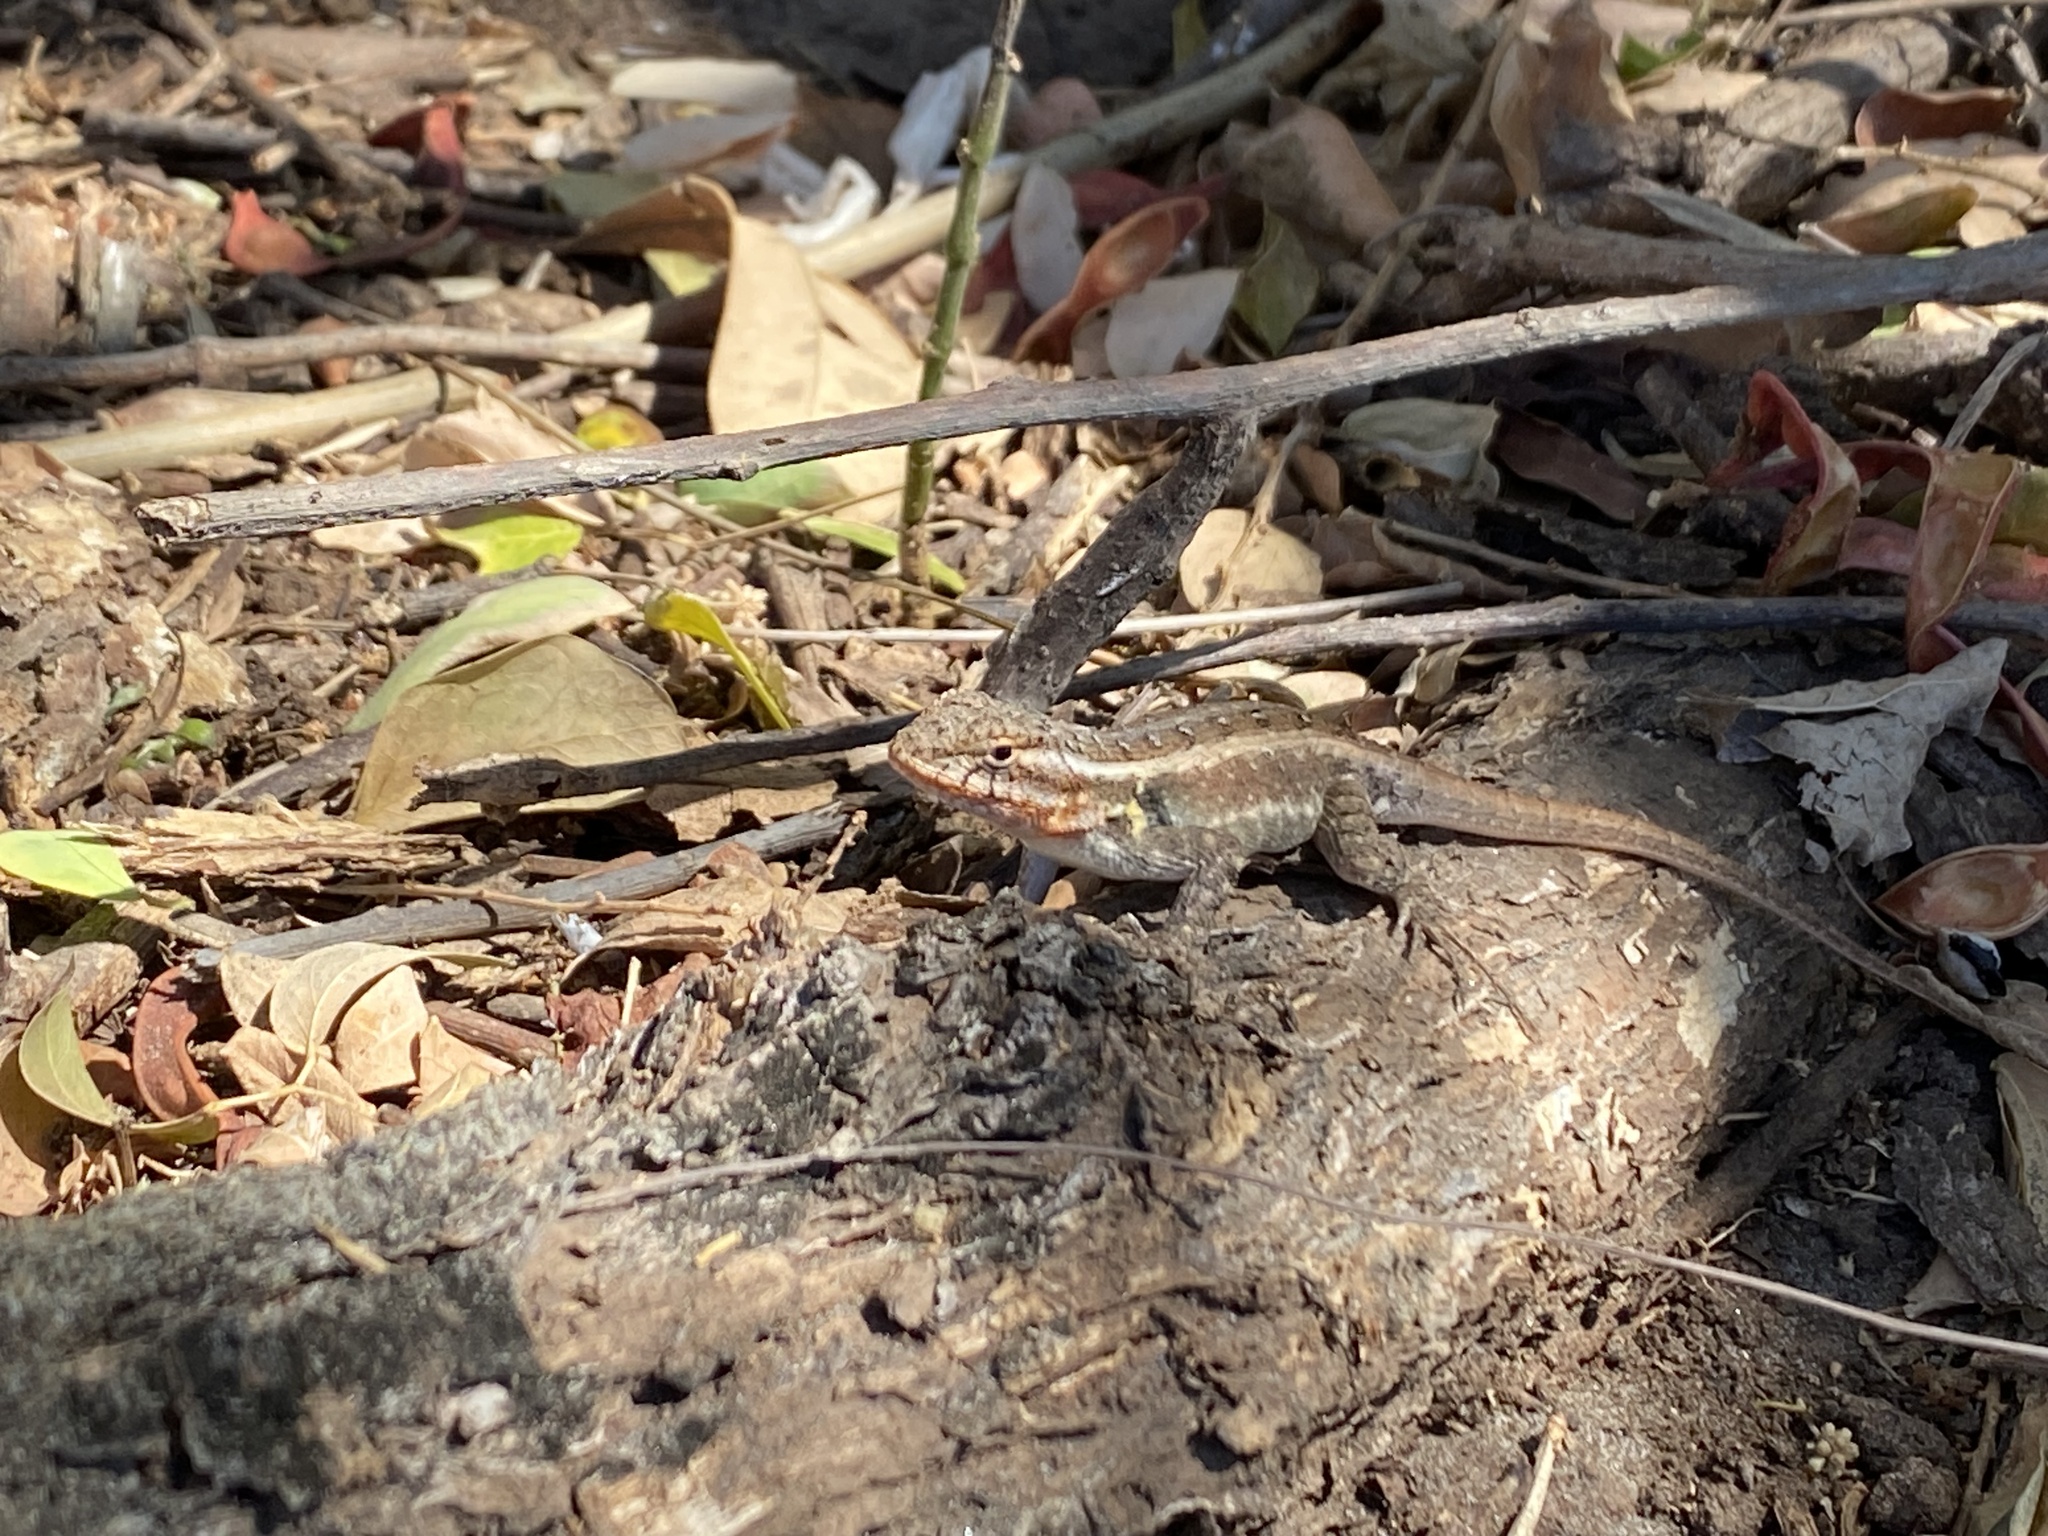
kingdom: Animalia
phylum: Chordata
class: Squamata
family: Phrynosomatidae
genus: Sceloporus
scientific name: Sceloporus variabilis
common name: Rosebelly lizard
